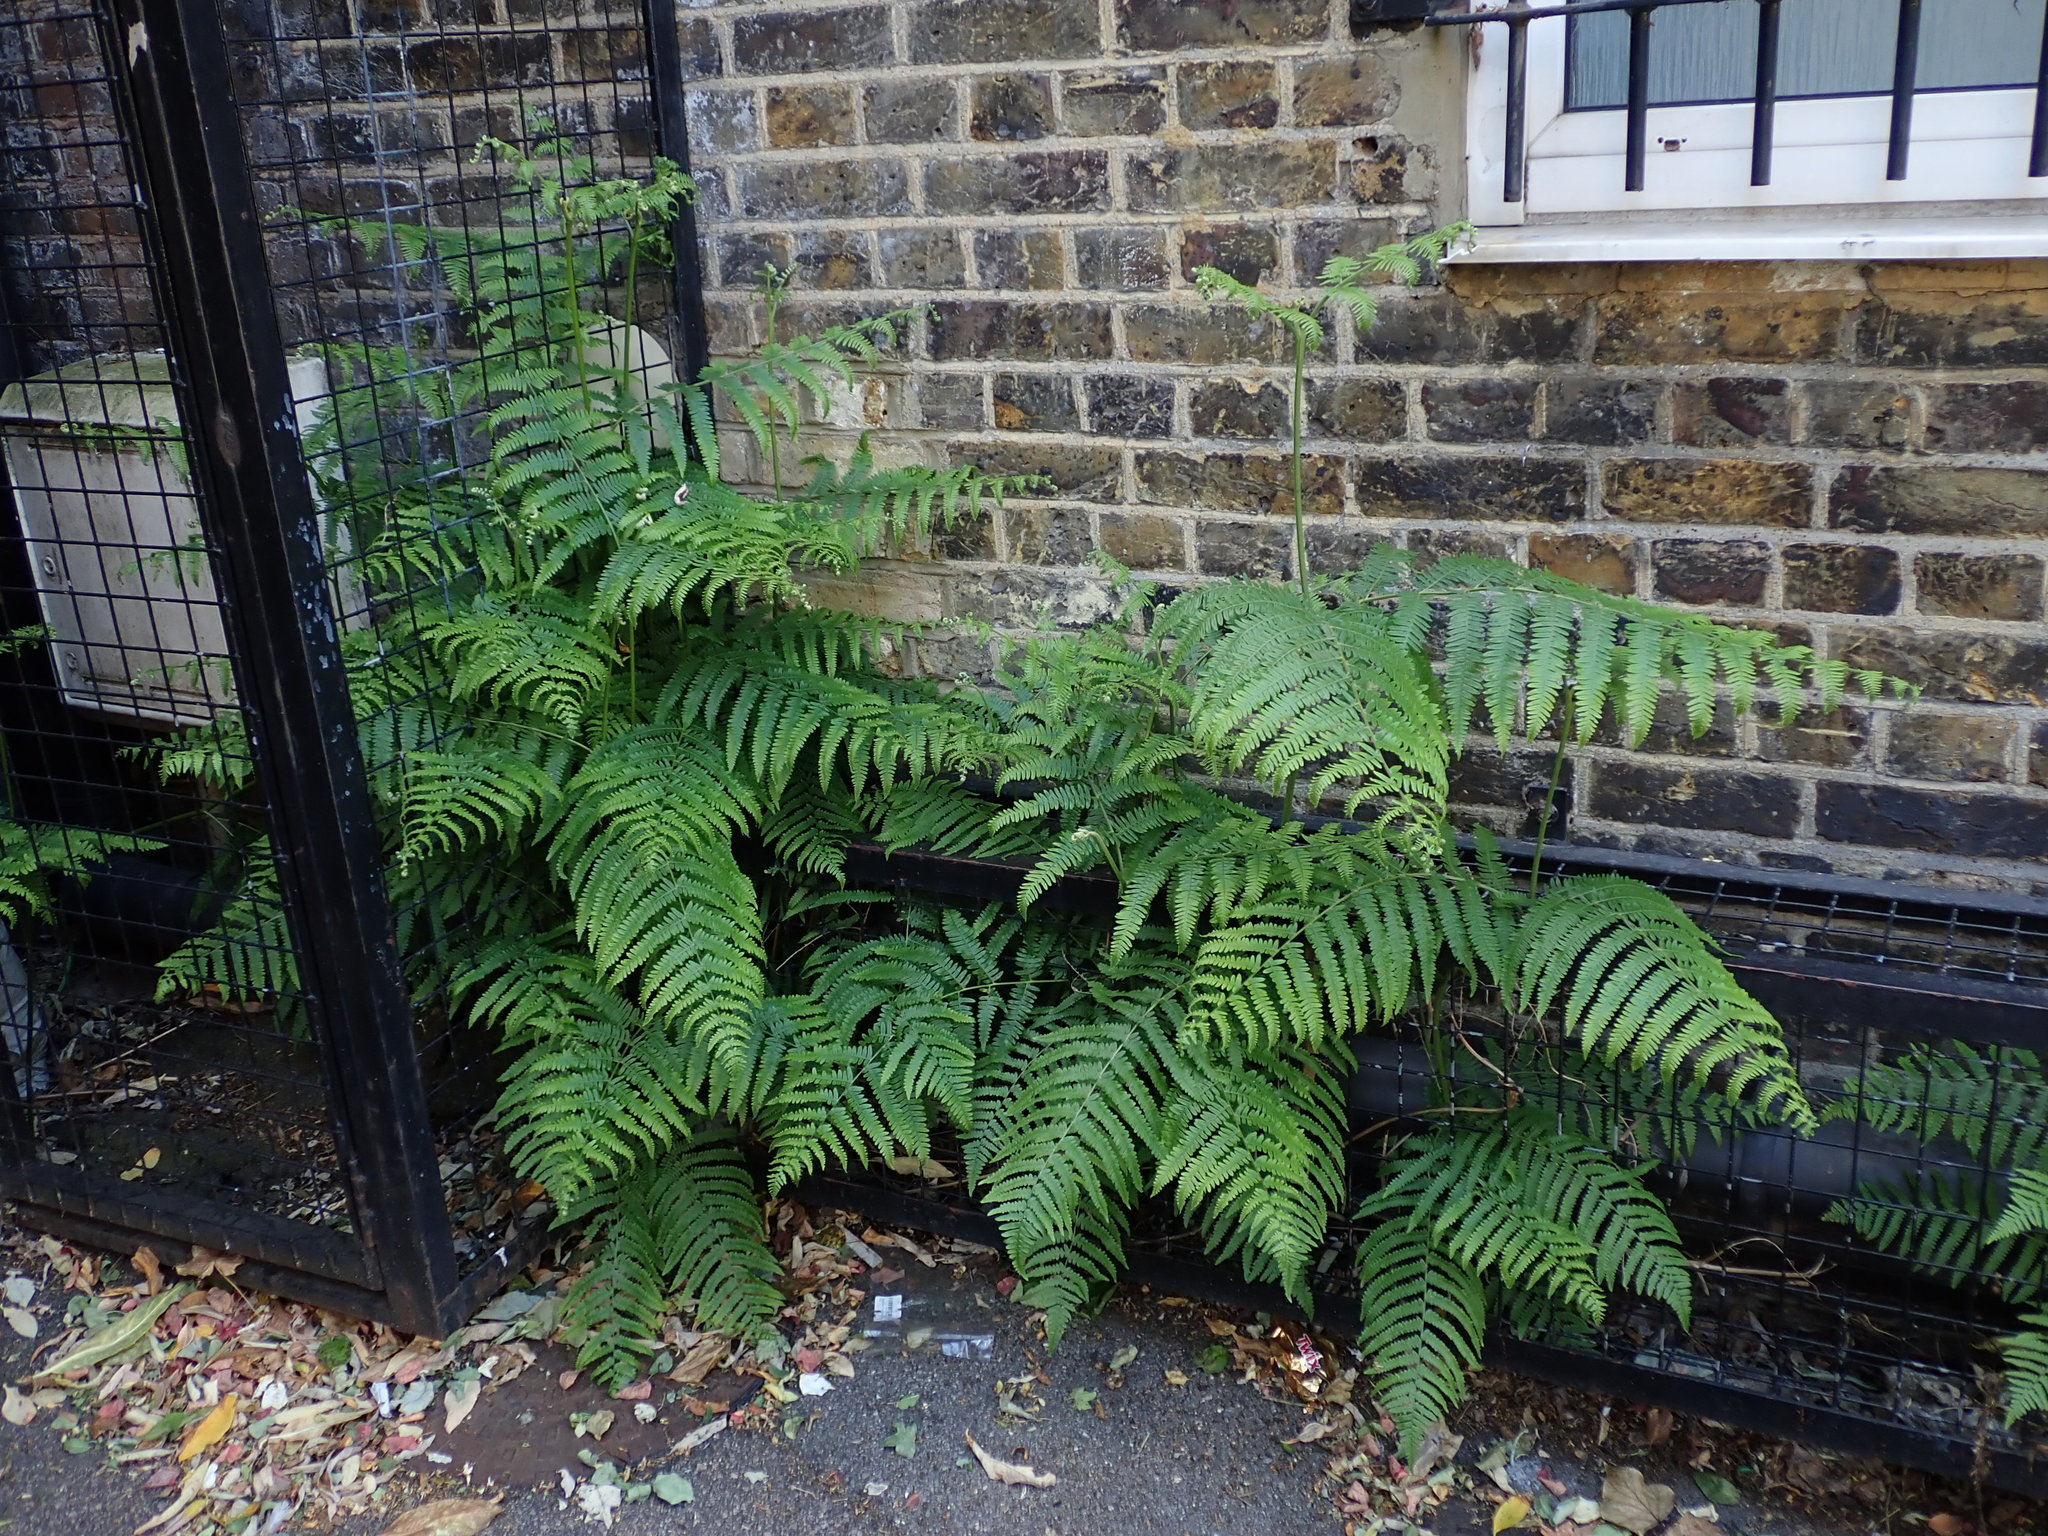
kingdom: Plantae
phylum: Tracheophyta
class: Polypodiopsida
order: Polypodiales
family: Dennstaedtiaceae
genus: Pteridium
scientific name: Pteridium aquilinum
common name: Bracken
